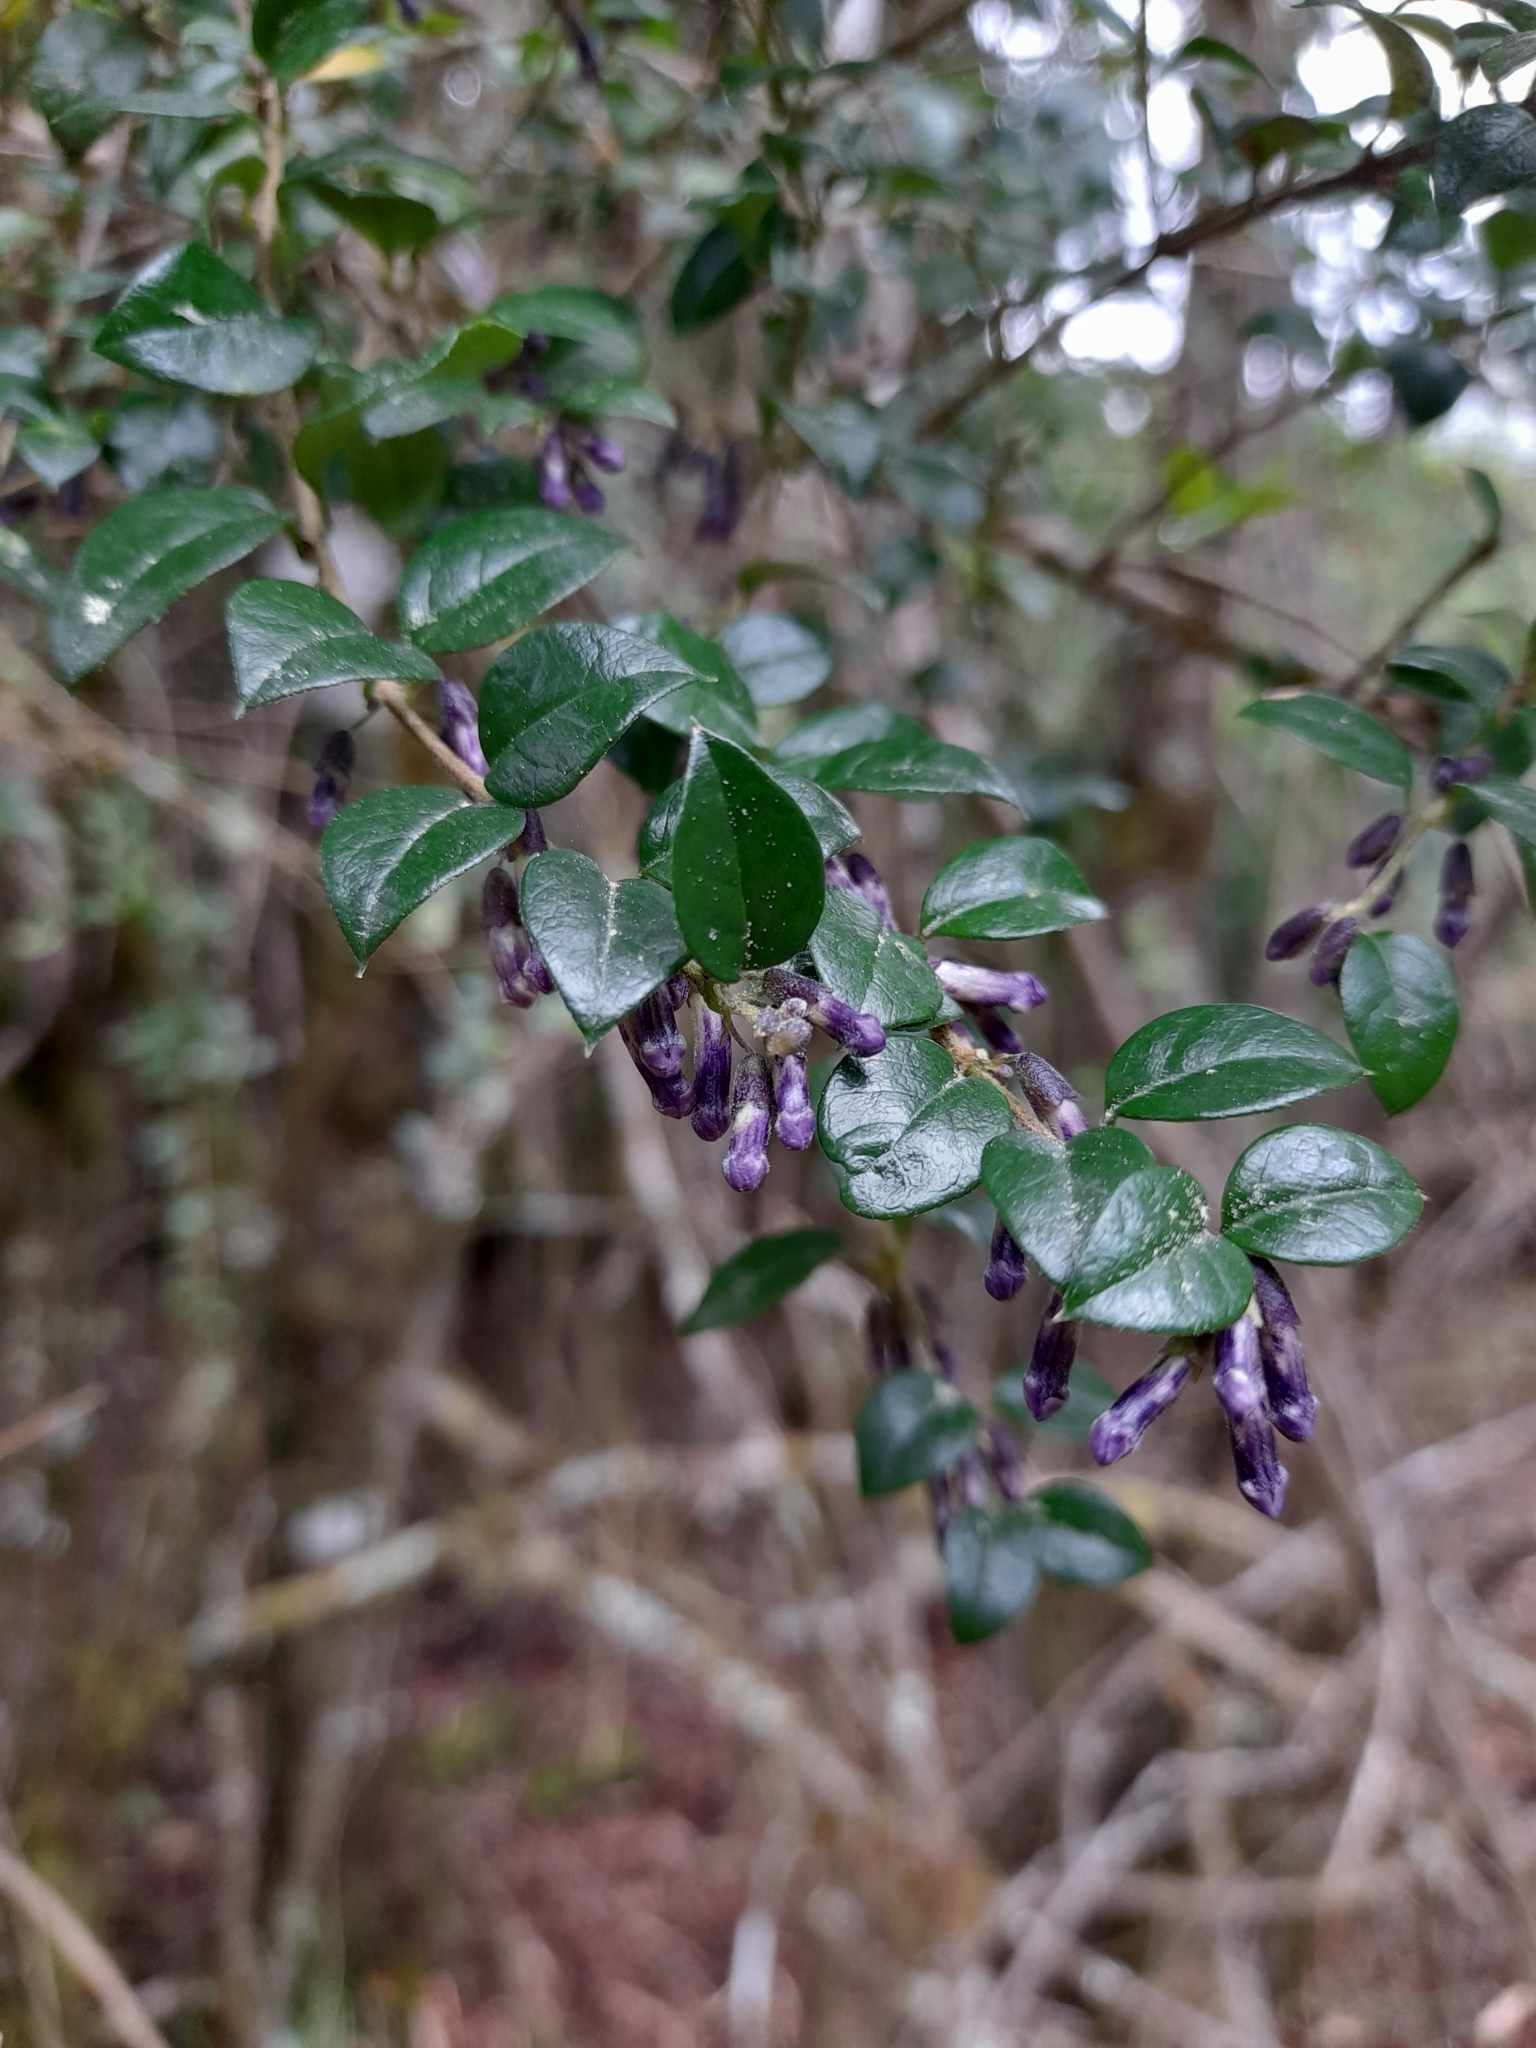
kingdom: Plantae
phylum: Tracheophyta
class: Magnoliopsida
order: Lamiales
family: Verbenaceae
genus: Rhaphithamnus
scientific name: Rhaphithamnus spinosus
